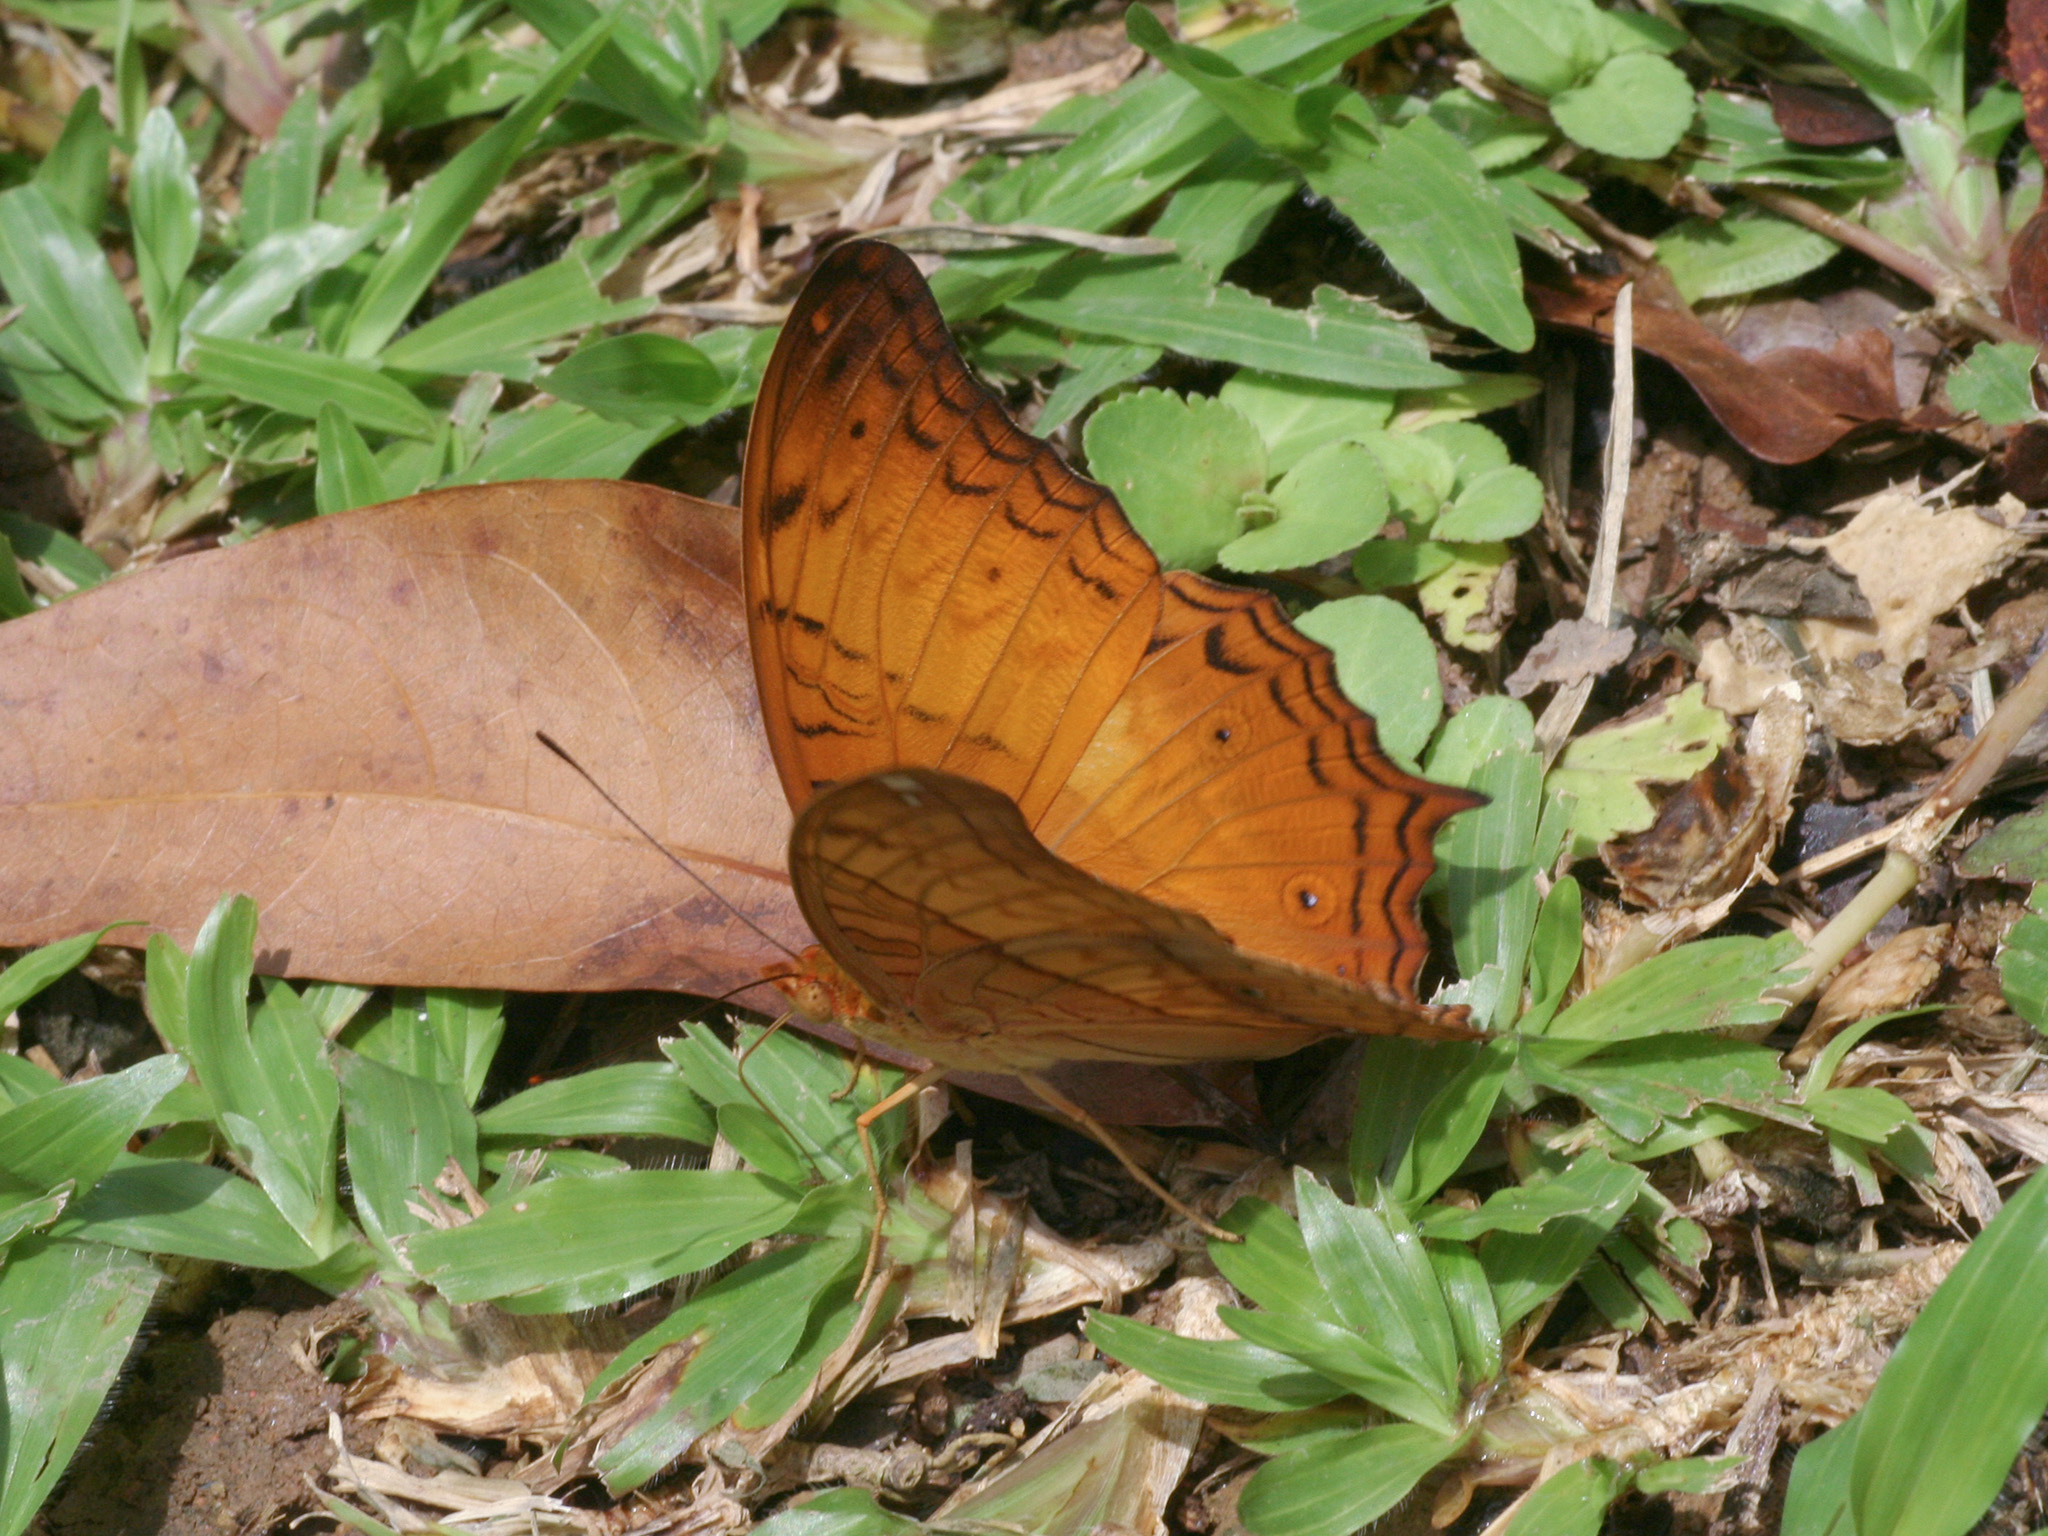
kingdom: Animalia
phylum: Arthropoda
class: Insecta
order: Lepidoptera
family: Nymphalidae
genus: Vindula
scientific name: Vindula deione
